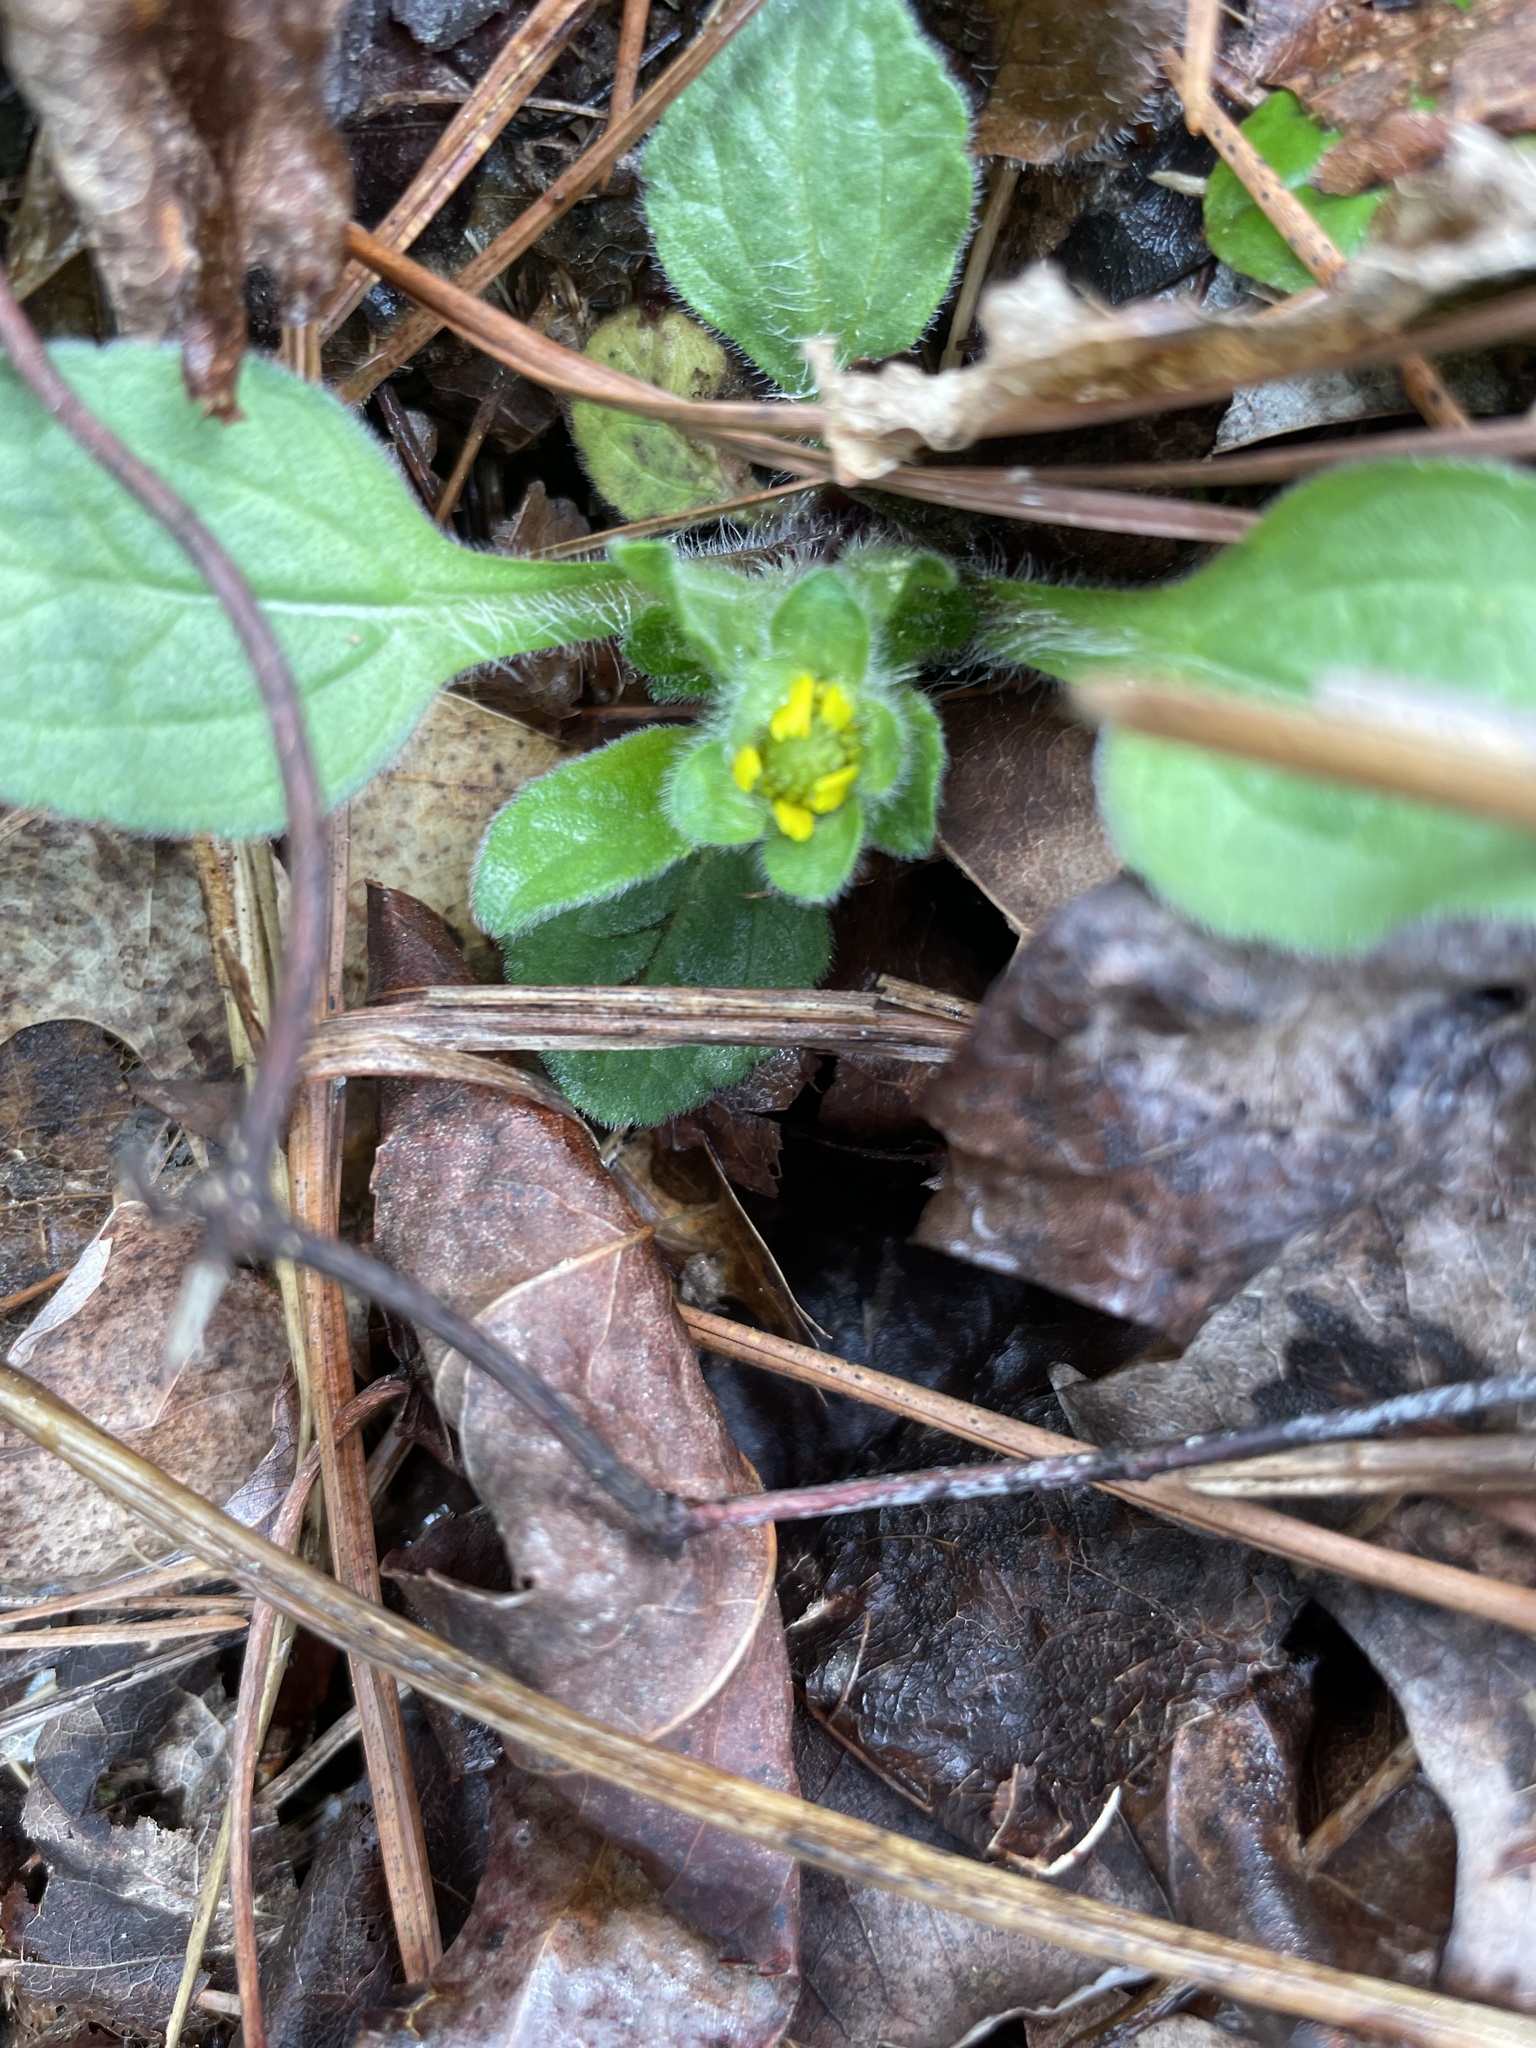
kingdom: Plantae
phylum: Tracheophyta
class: Magnoliopsida
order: Asterales
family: Asteraceae
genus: Chrysogonum
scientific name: Chrysogonum virginianum
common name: Golden-knee
